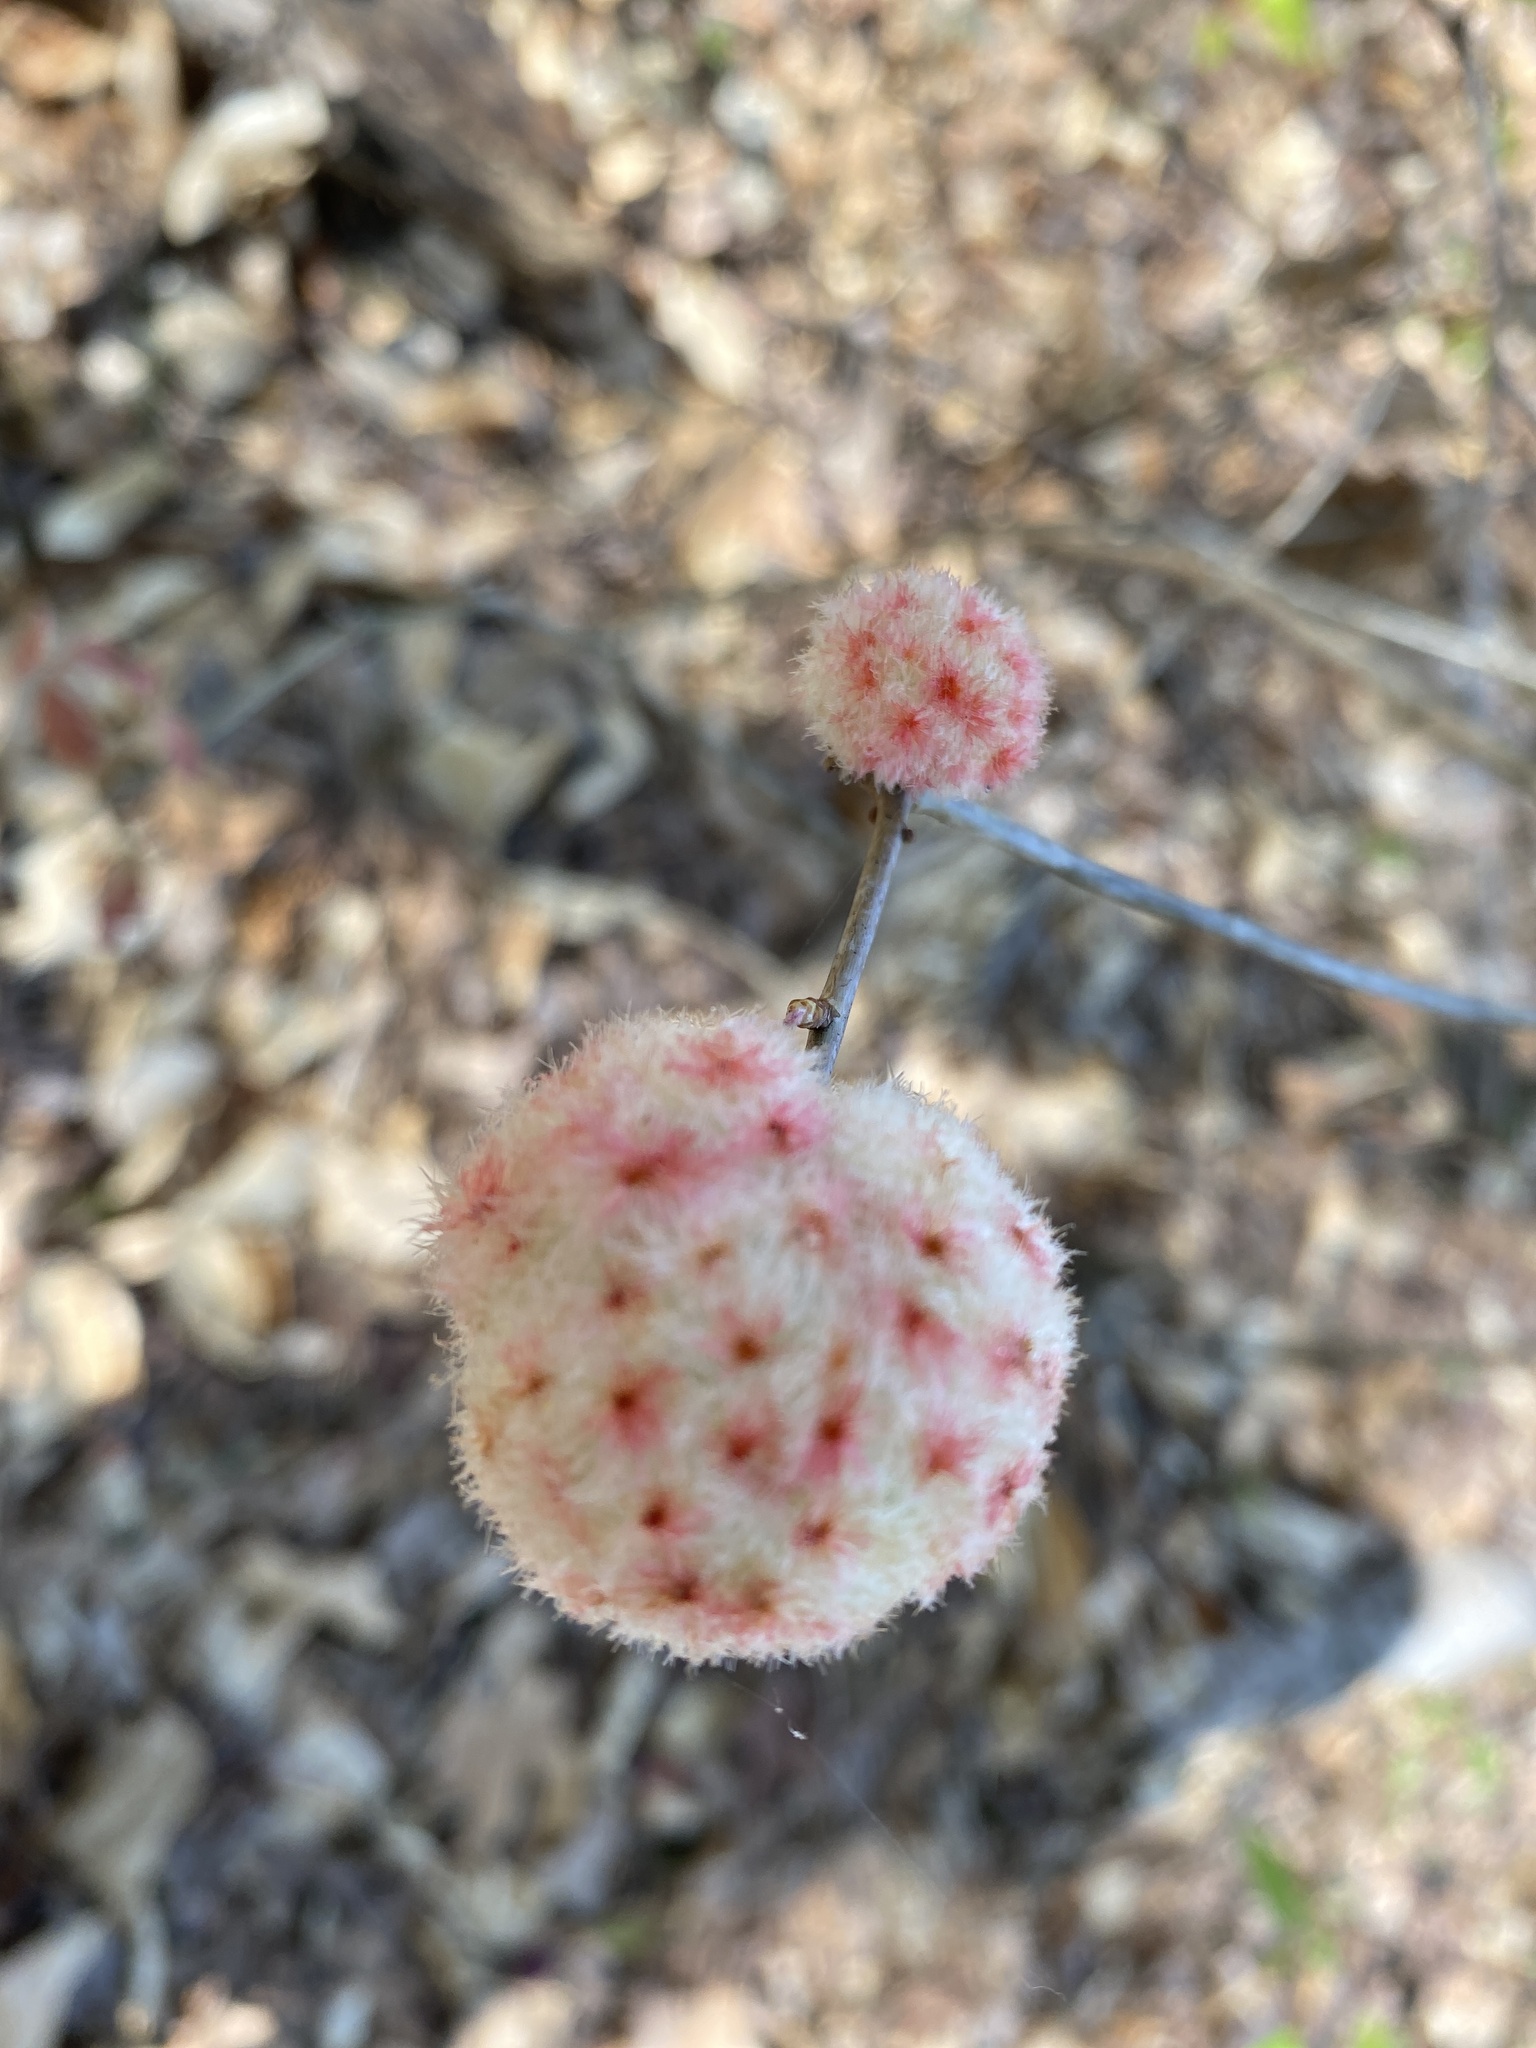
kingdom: Animalia
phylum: Arthropoda
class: Insecta
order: Hymenoptera
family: Cynipidae
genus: Callirhytis
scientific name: Callirhytis
